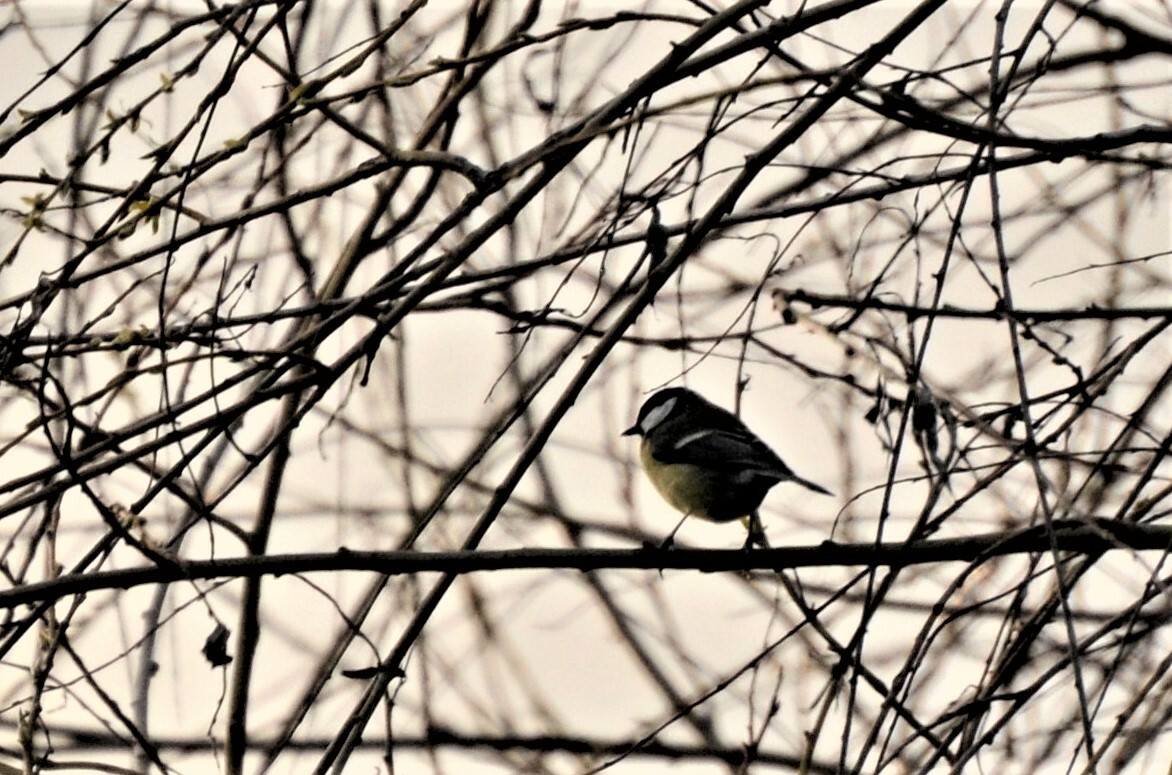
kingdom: Animalia
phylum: Chordata
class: Aves
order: Passeriformes
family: Paridae
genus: Parus
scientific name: Parus major
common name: Great tit
